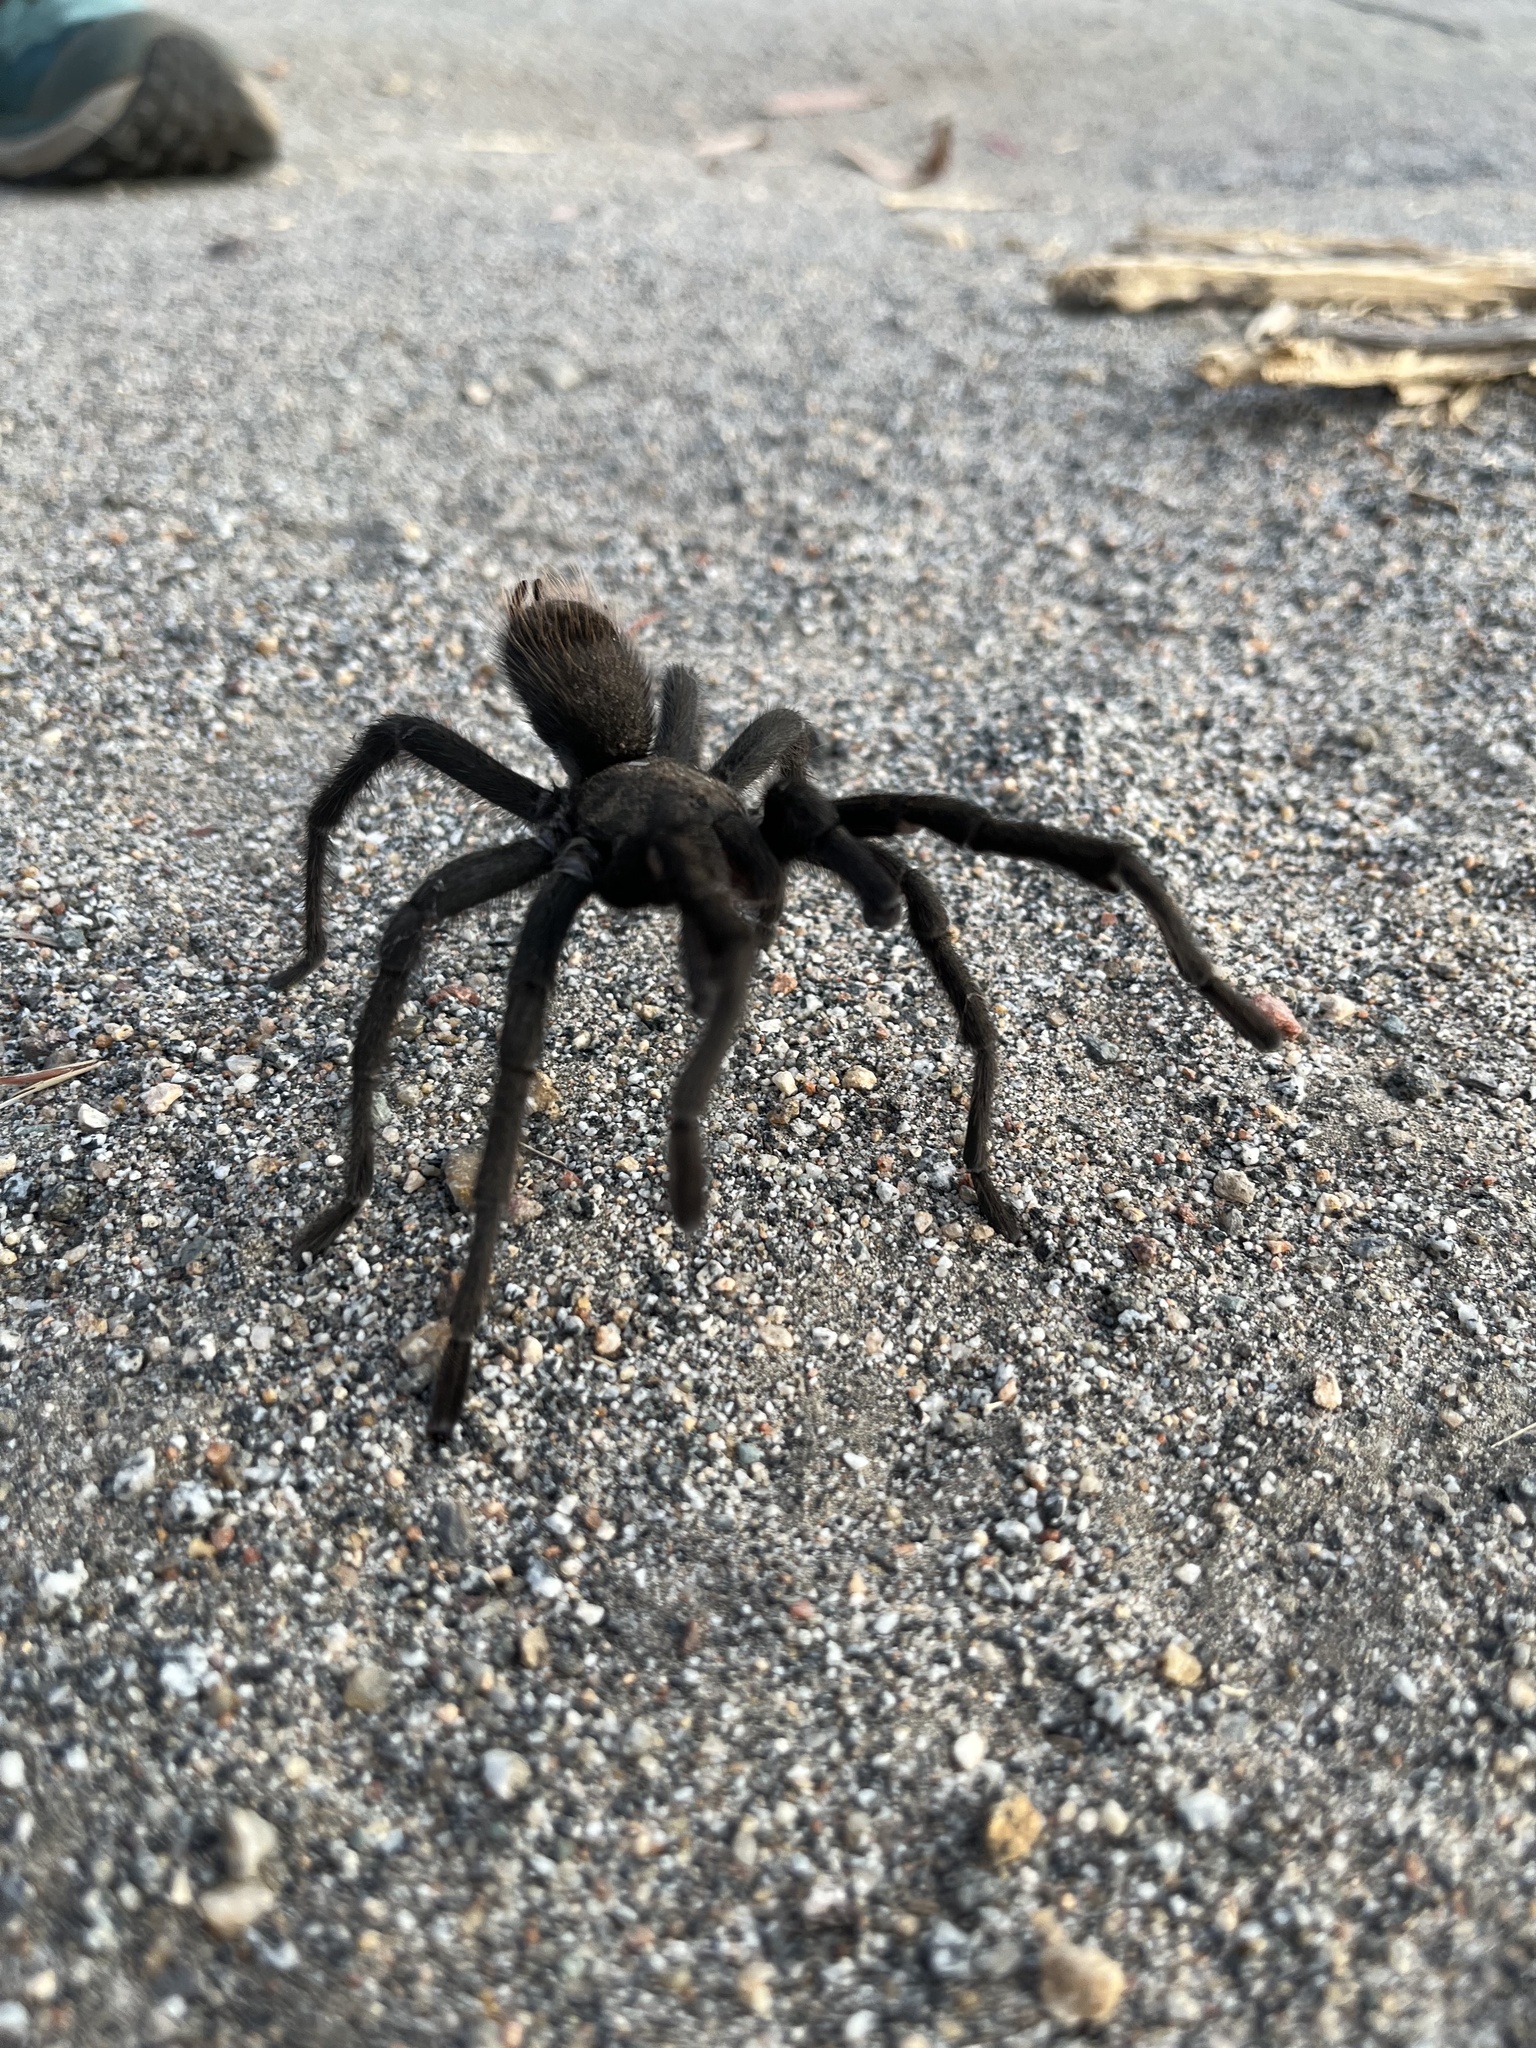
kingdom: Animalia
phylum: Arthropoda
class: Arachnida
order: Araneae
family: Theraphosidae
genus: Aphonopelma
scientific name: Aphonopelma steindachneri
